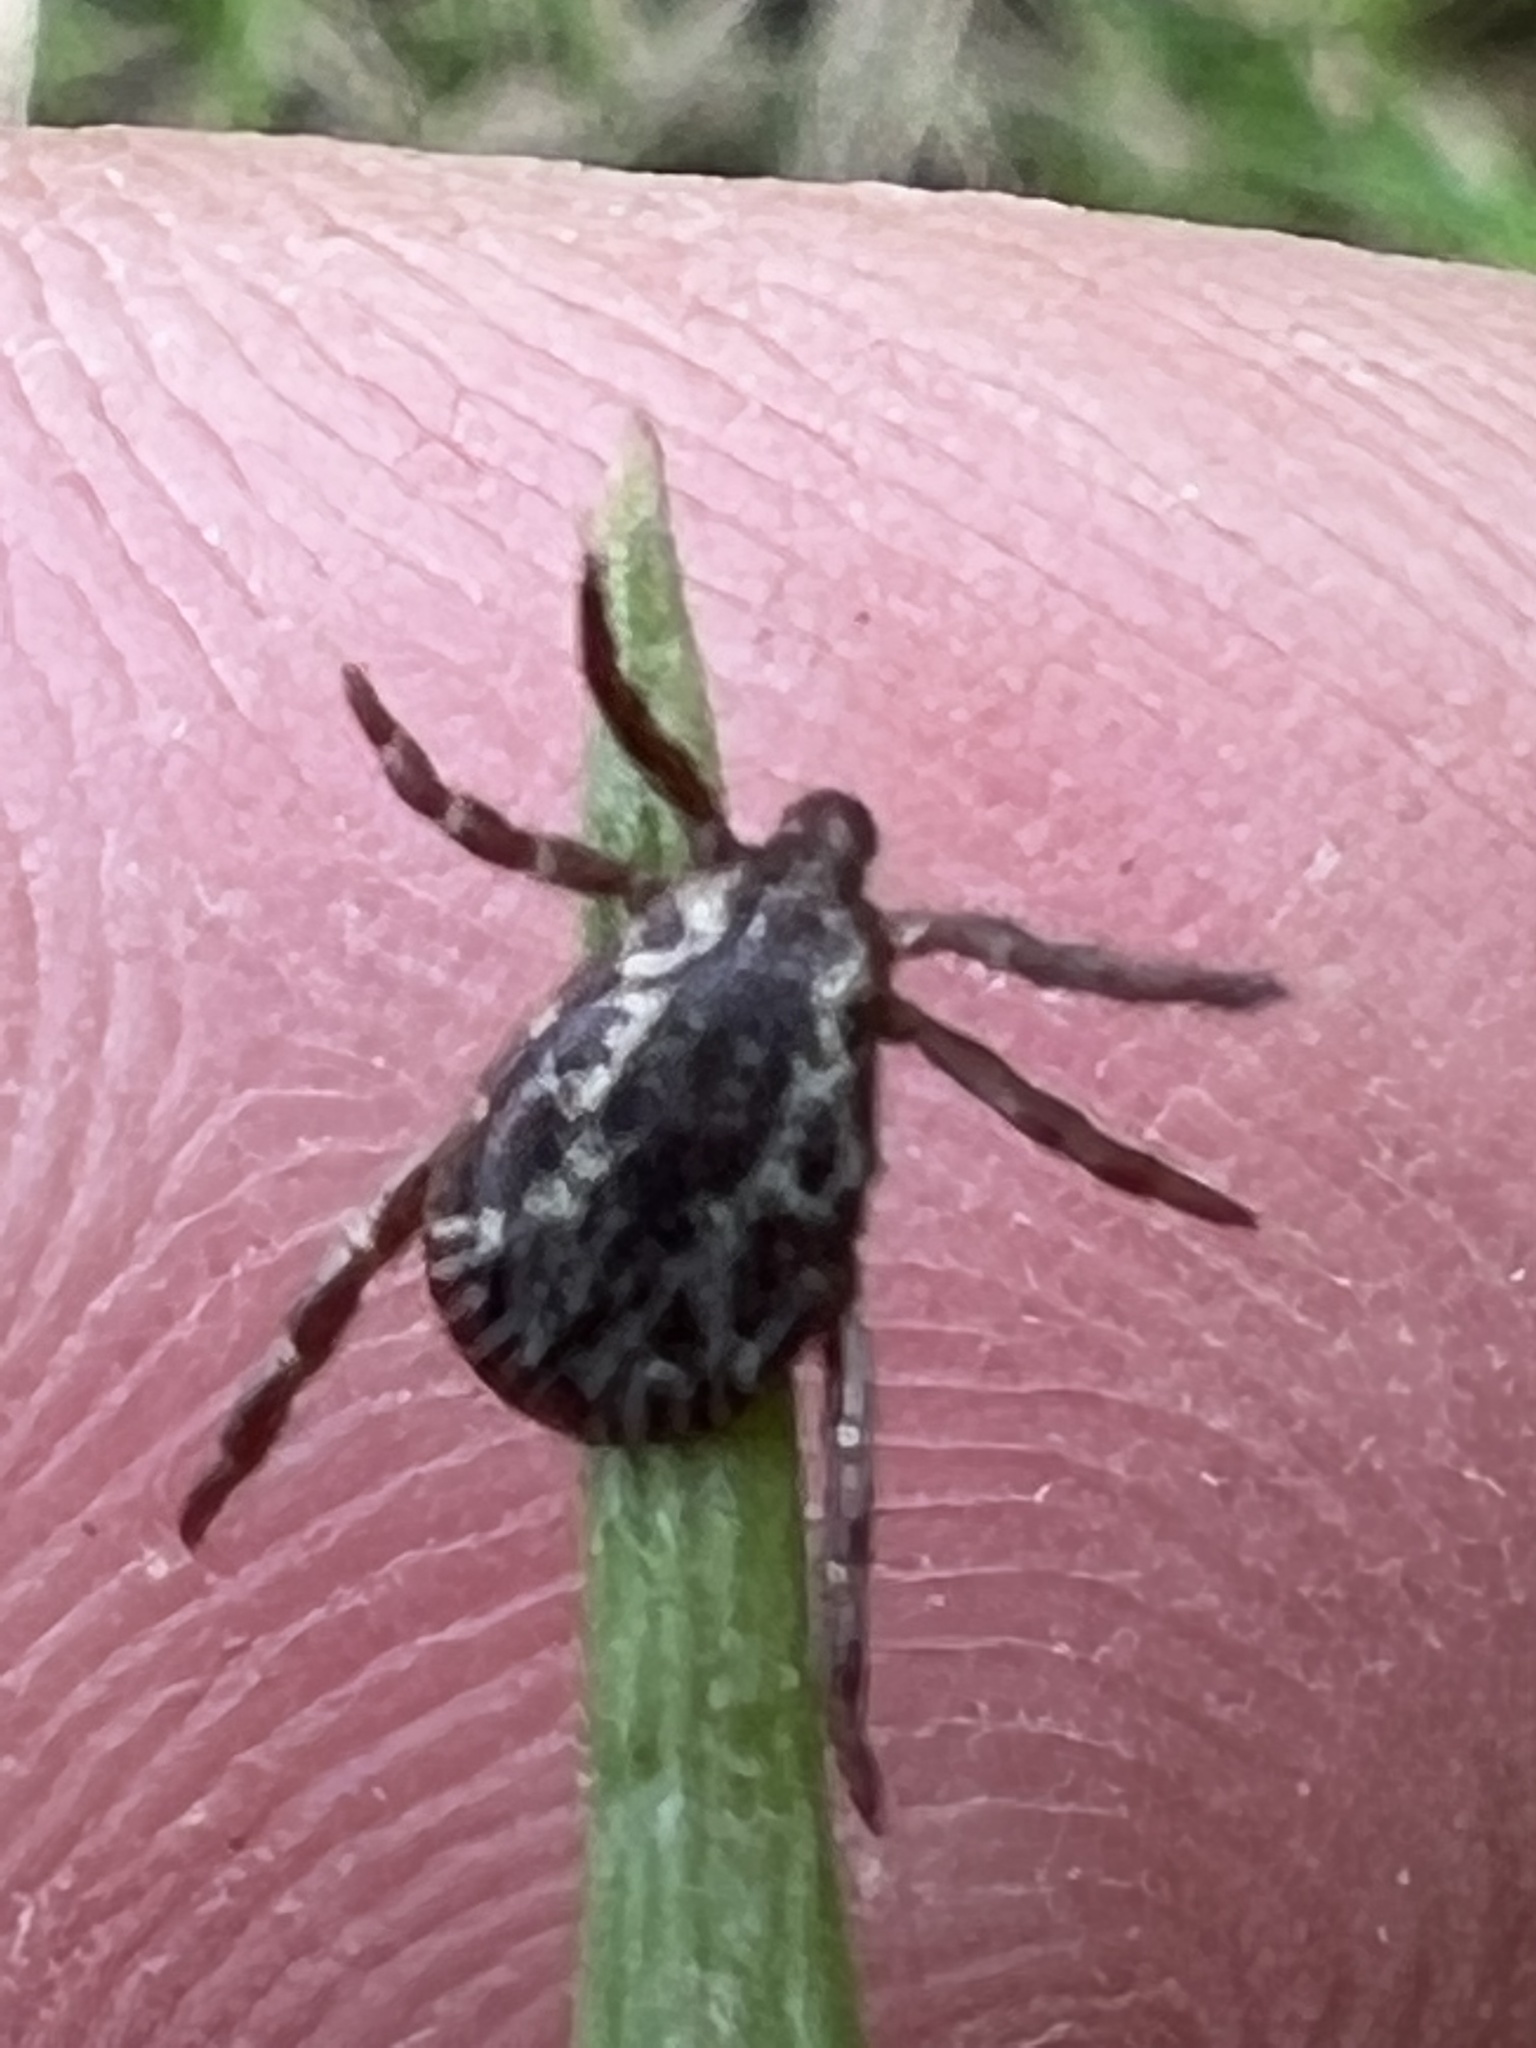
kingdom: Animalia
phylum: Arthropoda
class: Arachnida
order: Ixodida
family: Ixodidae
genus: Dermacentor
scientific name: Dermacentor variabilis
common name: American dog tick
